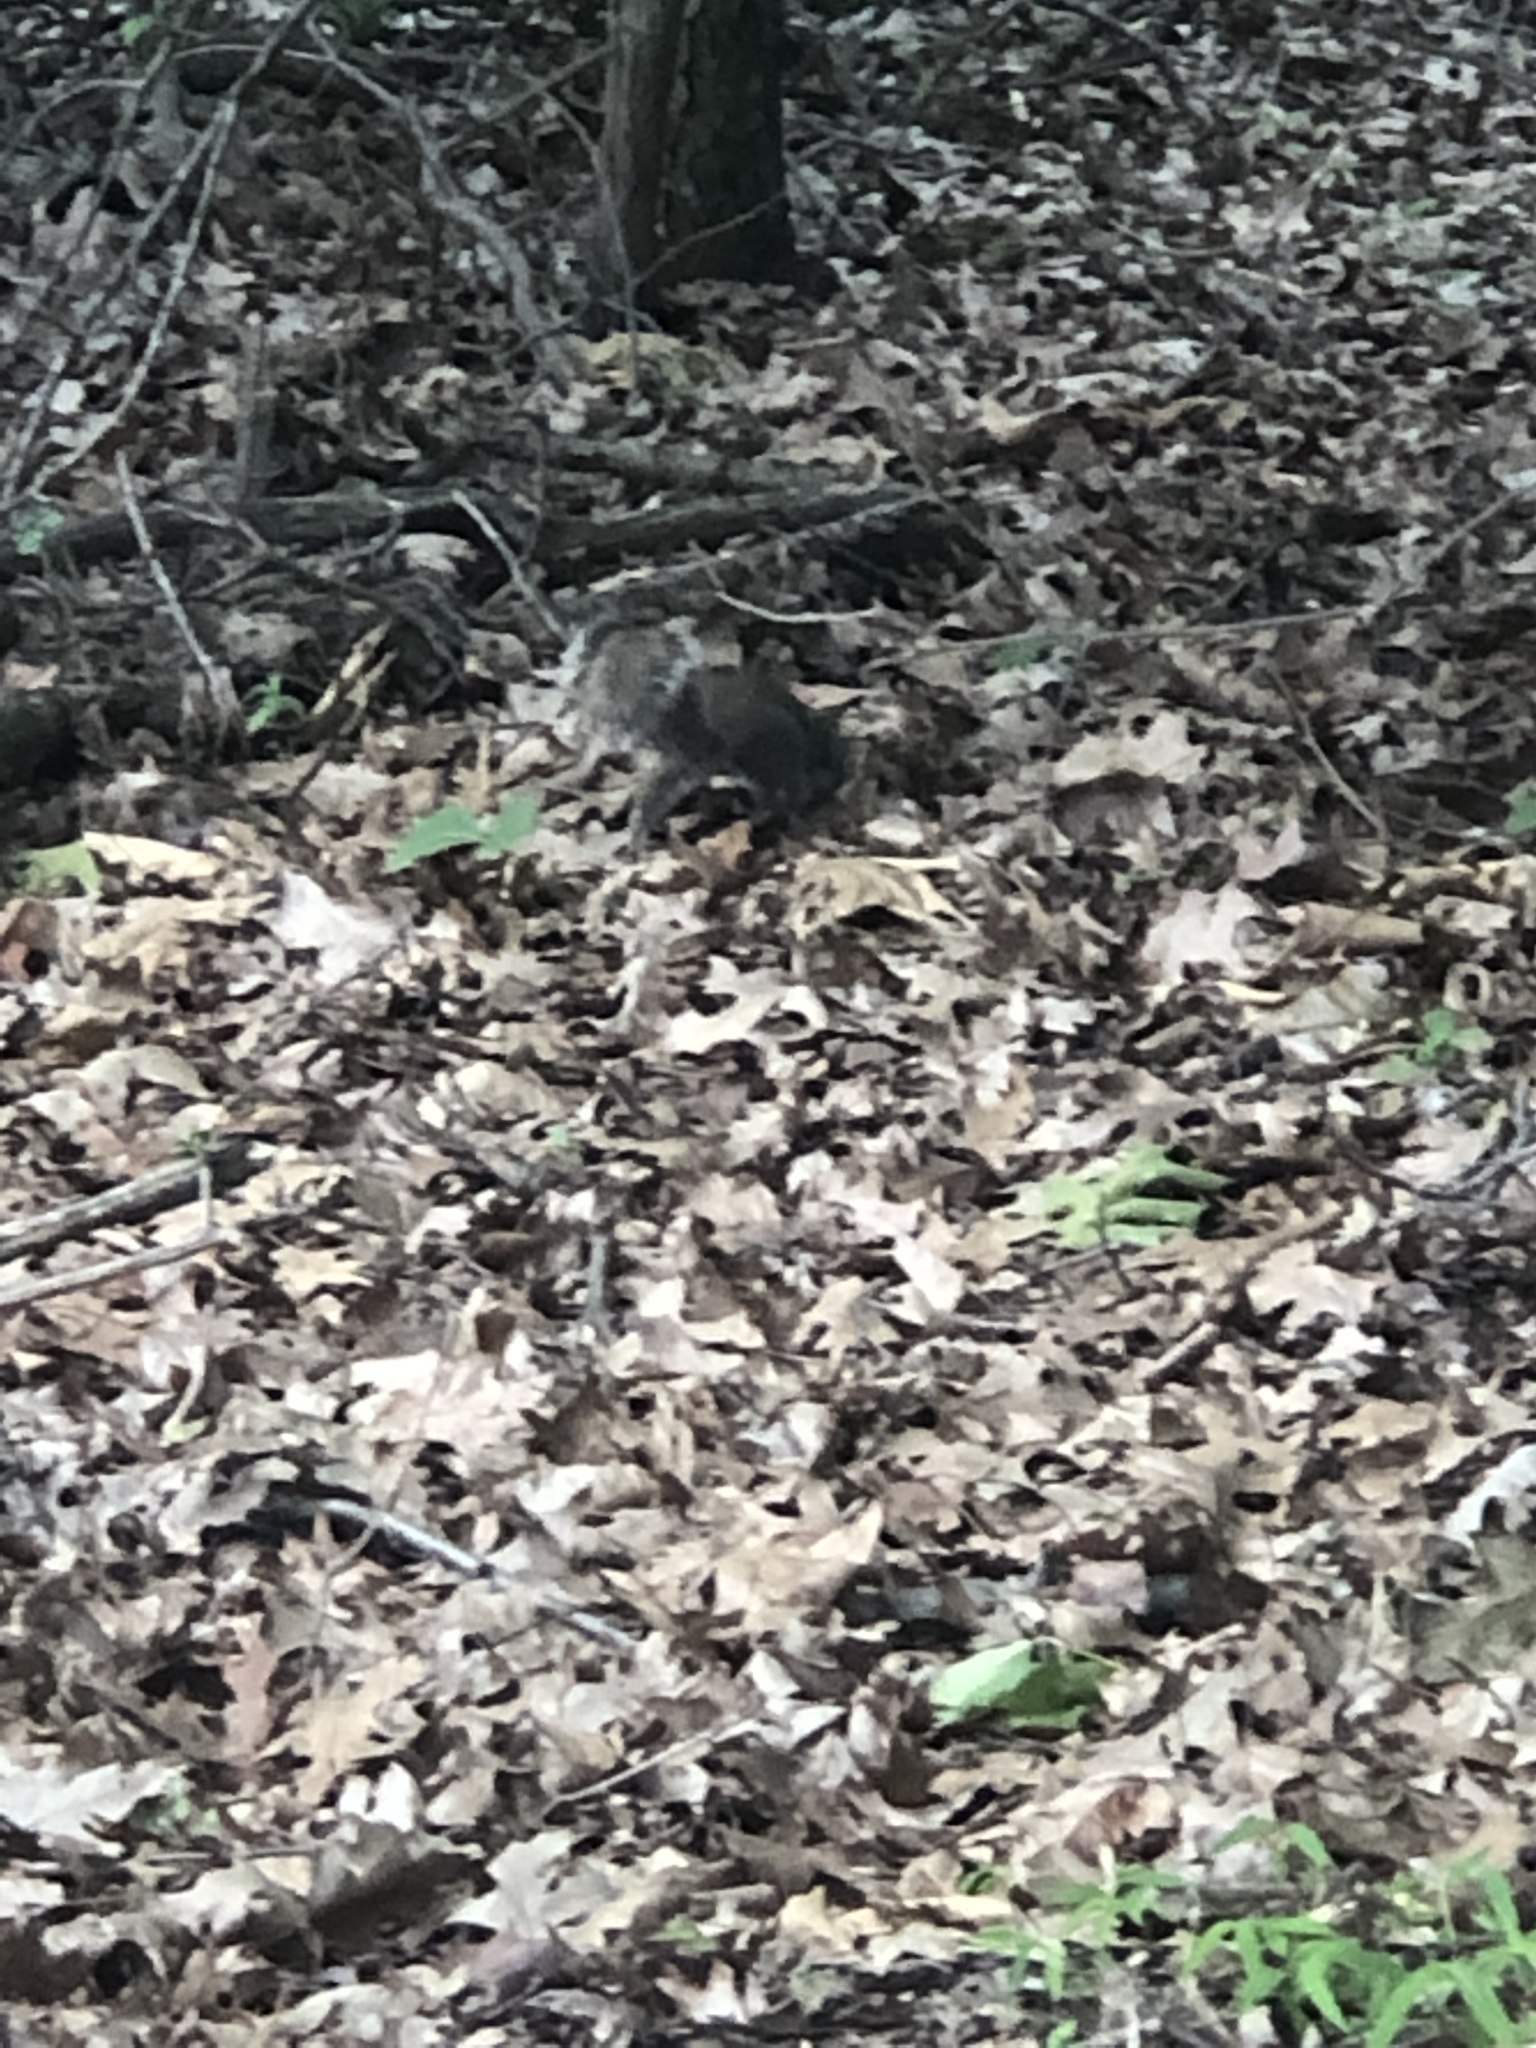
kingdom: Animalia
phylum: Chordata
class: Mammalia
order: Rodentia
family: Sciuridae
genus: Sciurus
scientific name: Sciurus carolinensis
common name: Eastern gray squirrel
